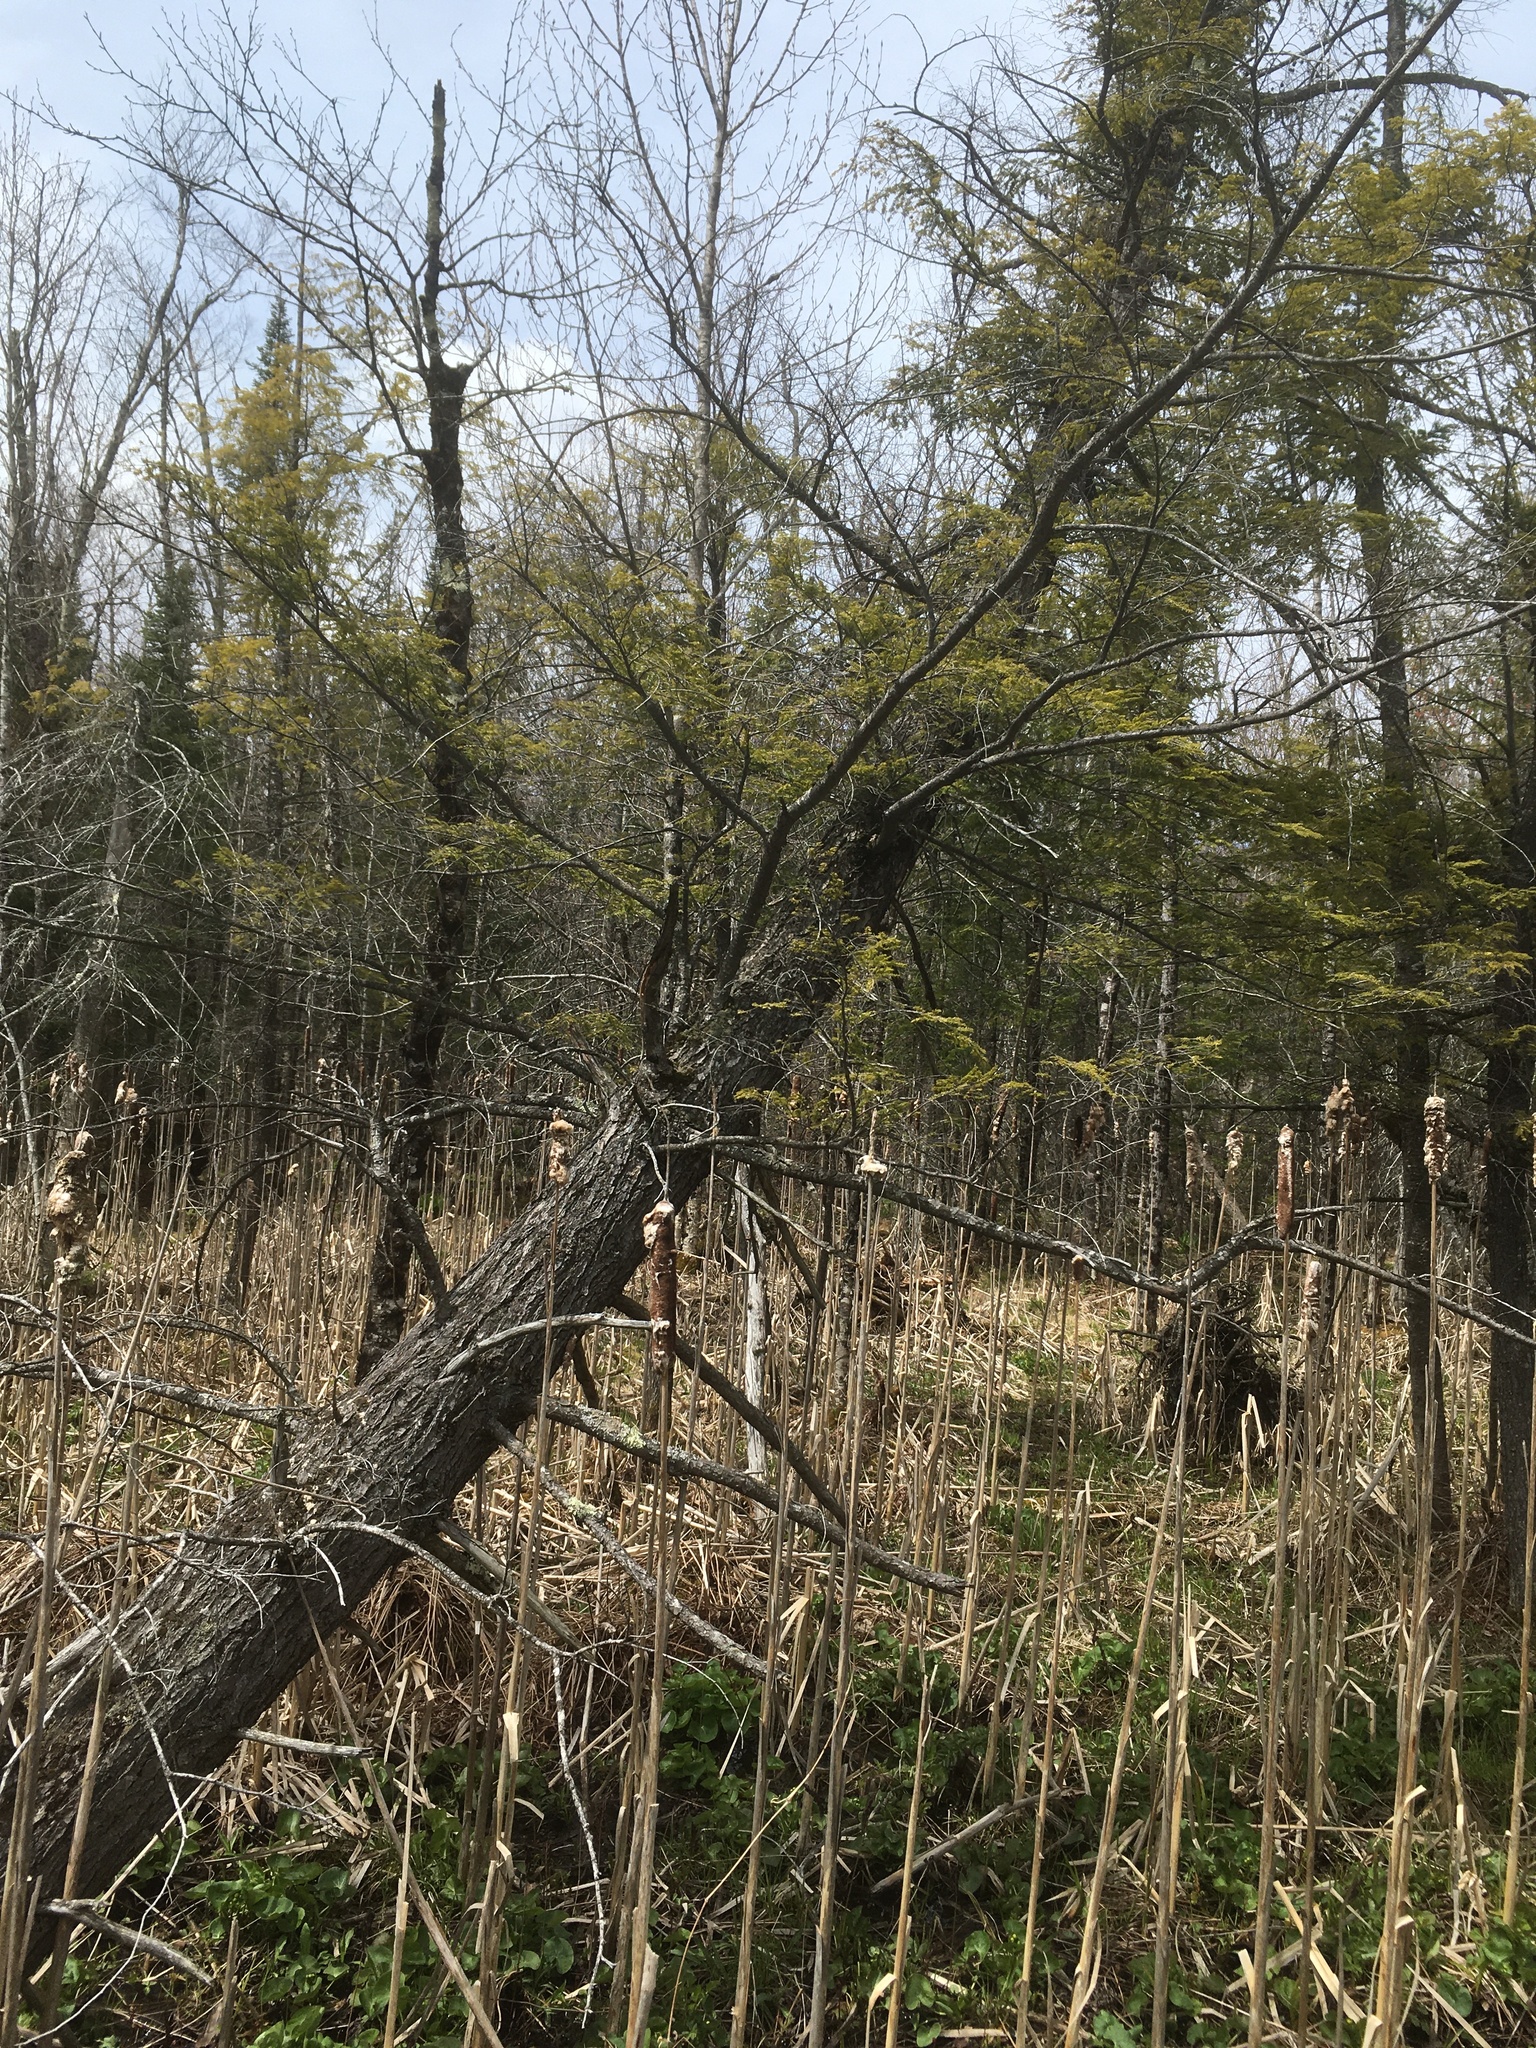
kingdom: Plantae
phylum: Tracheophyta
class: Pinopsida
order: Pinales
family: Pinaceae
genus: Tsuga
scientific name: Tsuga canadensis
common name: Eastern hemlock
